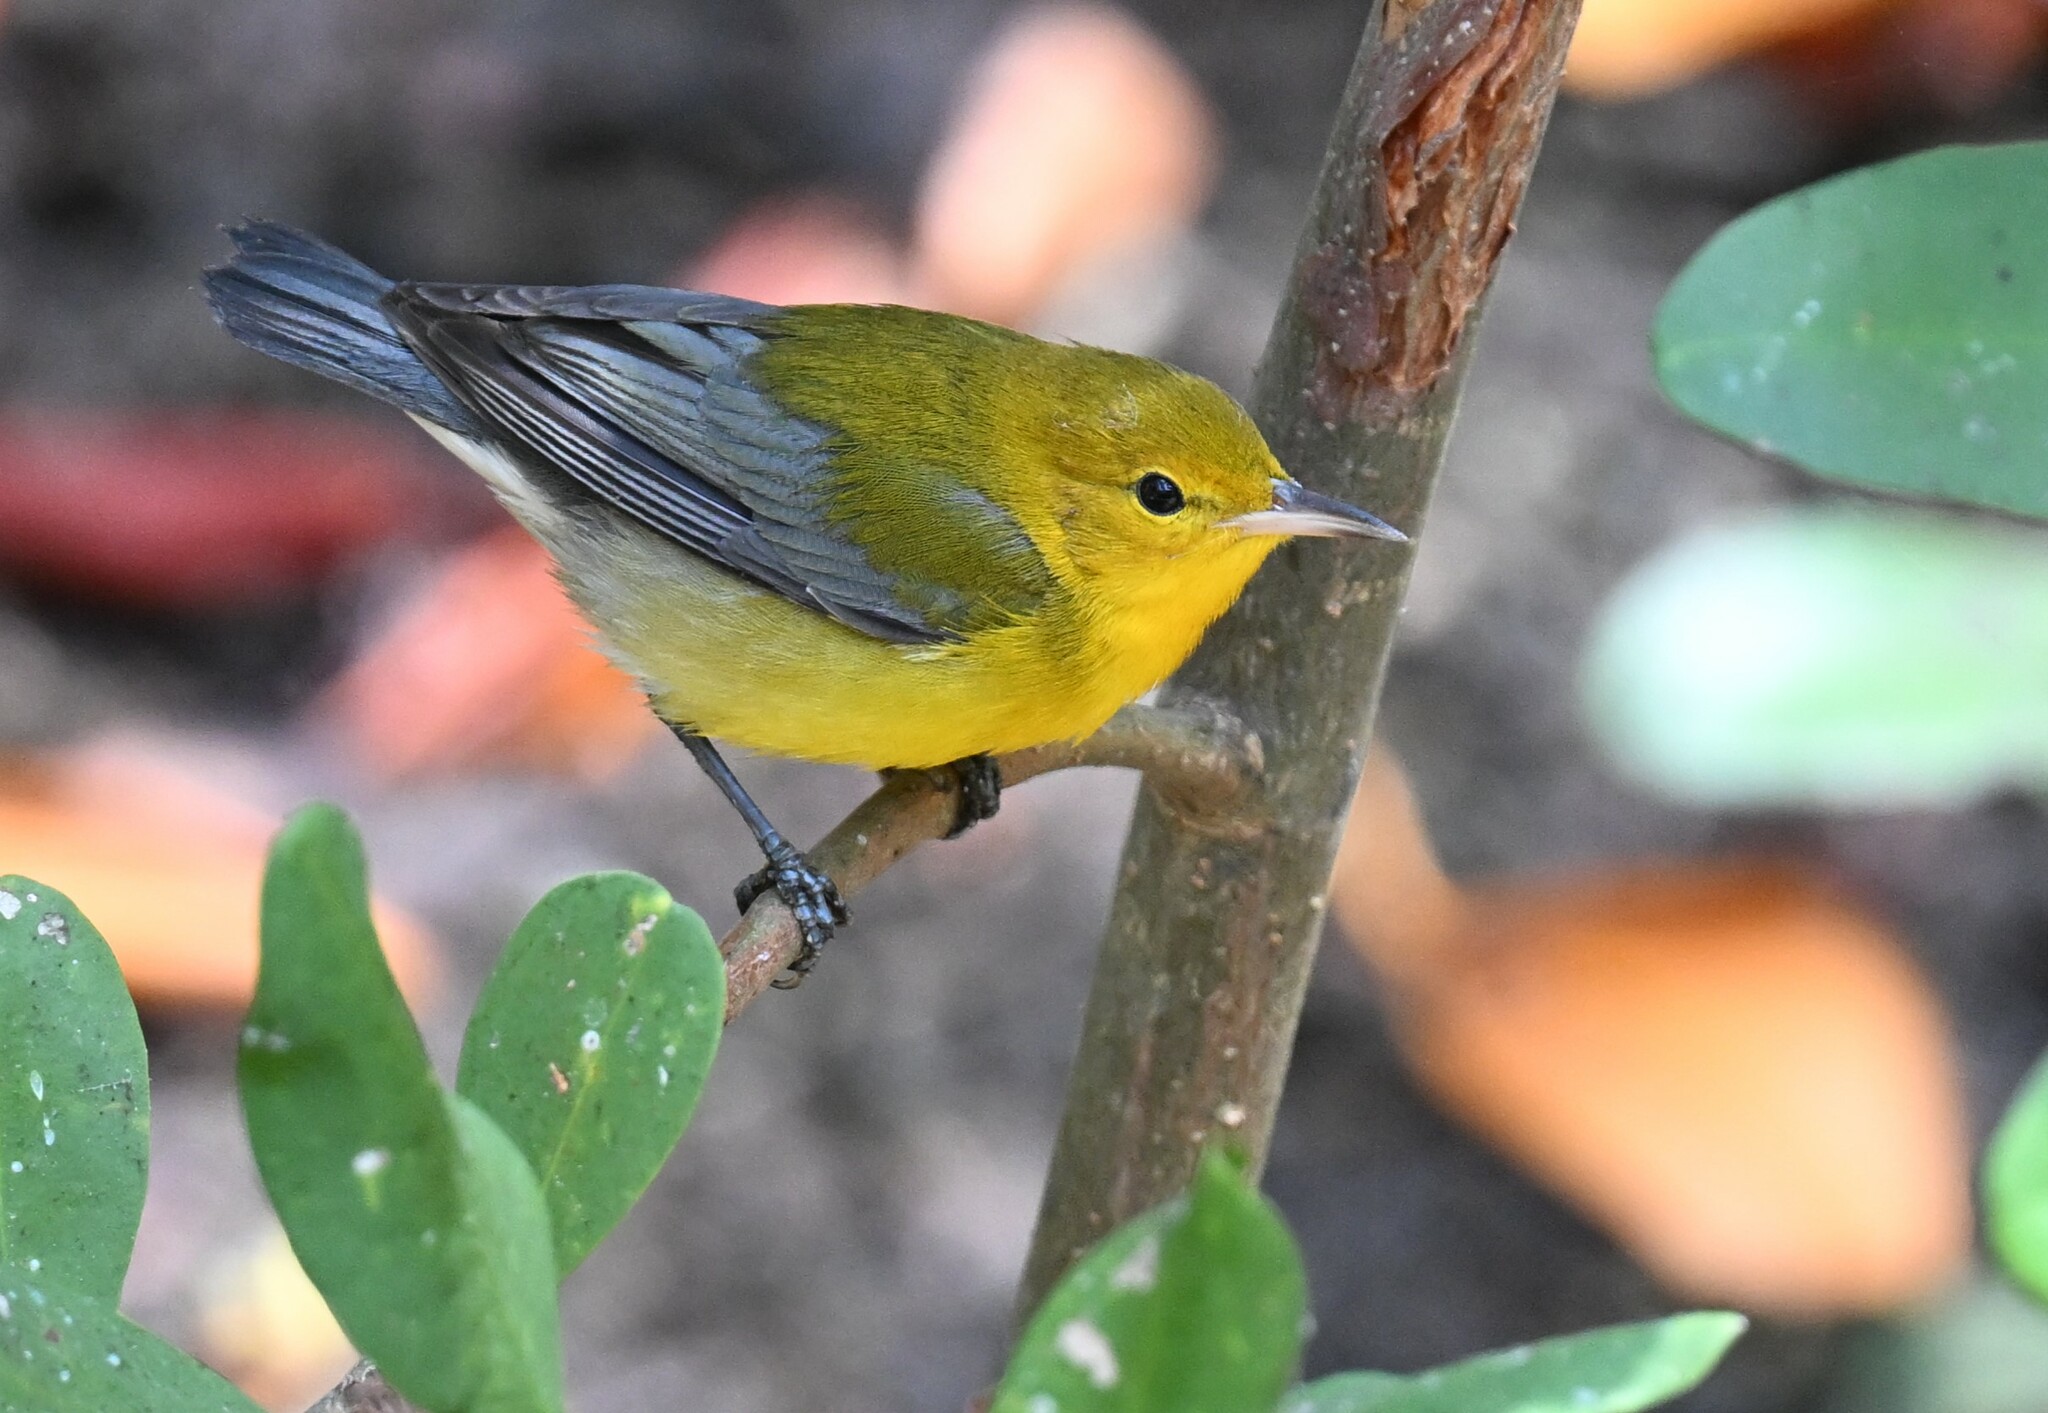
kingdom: Animalia
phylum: Chordata
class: Aves
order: Passeriformes
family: Parulidae
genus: Protonotaria
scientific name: Protonotaria citrea
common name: Prothonotary warbler
